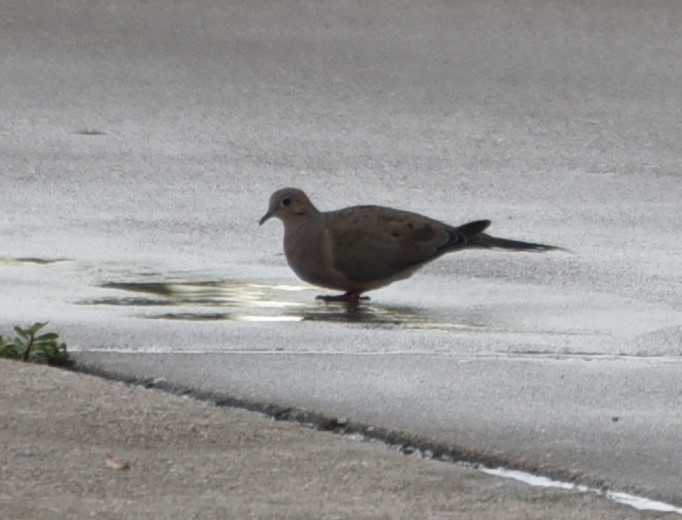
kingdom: Animalia
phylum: Chordata
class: Aves
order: Columbiformes
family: Columbidae
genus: Zenaida
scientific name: Zenaida macroura
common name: Mourning dove
